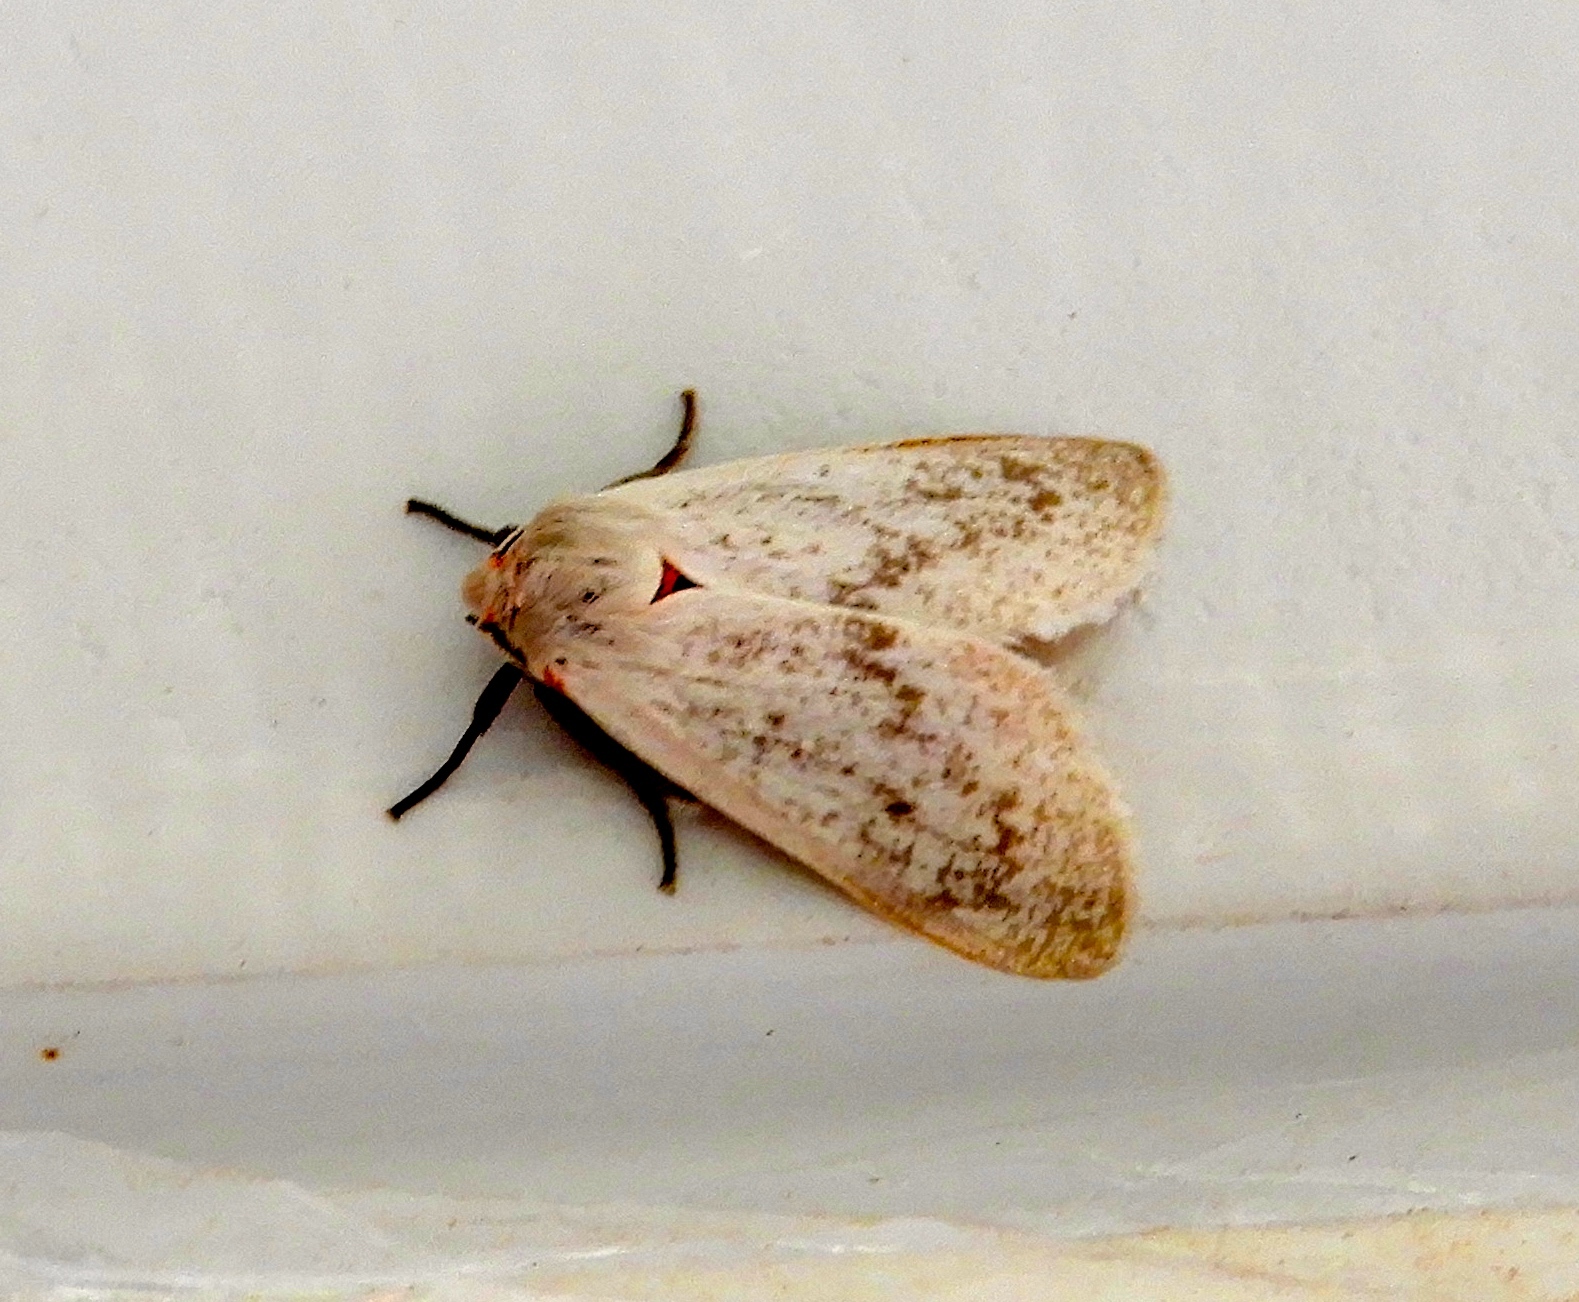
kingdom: Animalia
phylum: Arthropoda
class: Insecta
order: Lepidoptera
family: Erebidae
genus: Euchaetes
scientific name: Euchaetes
